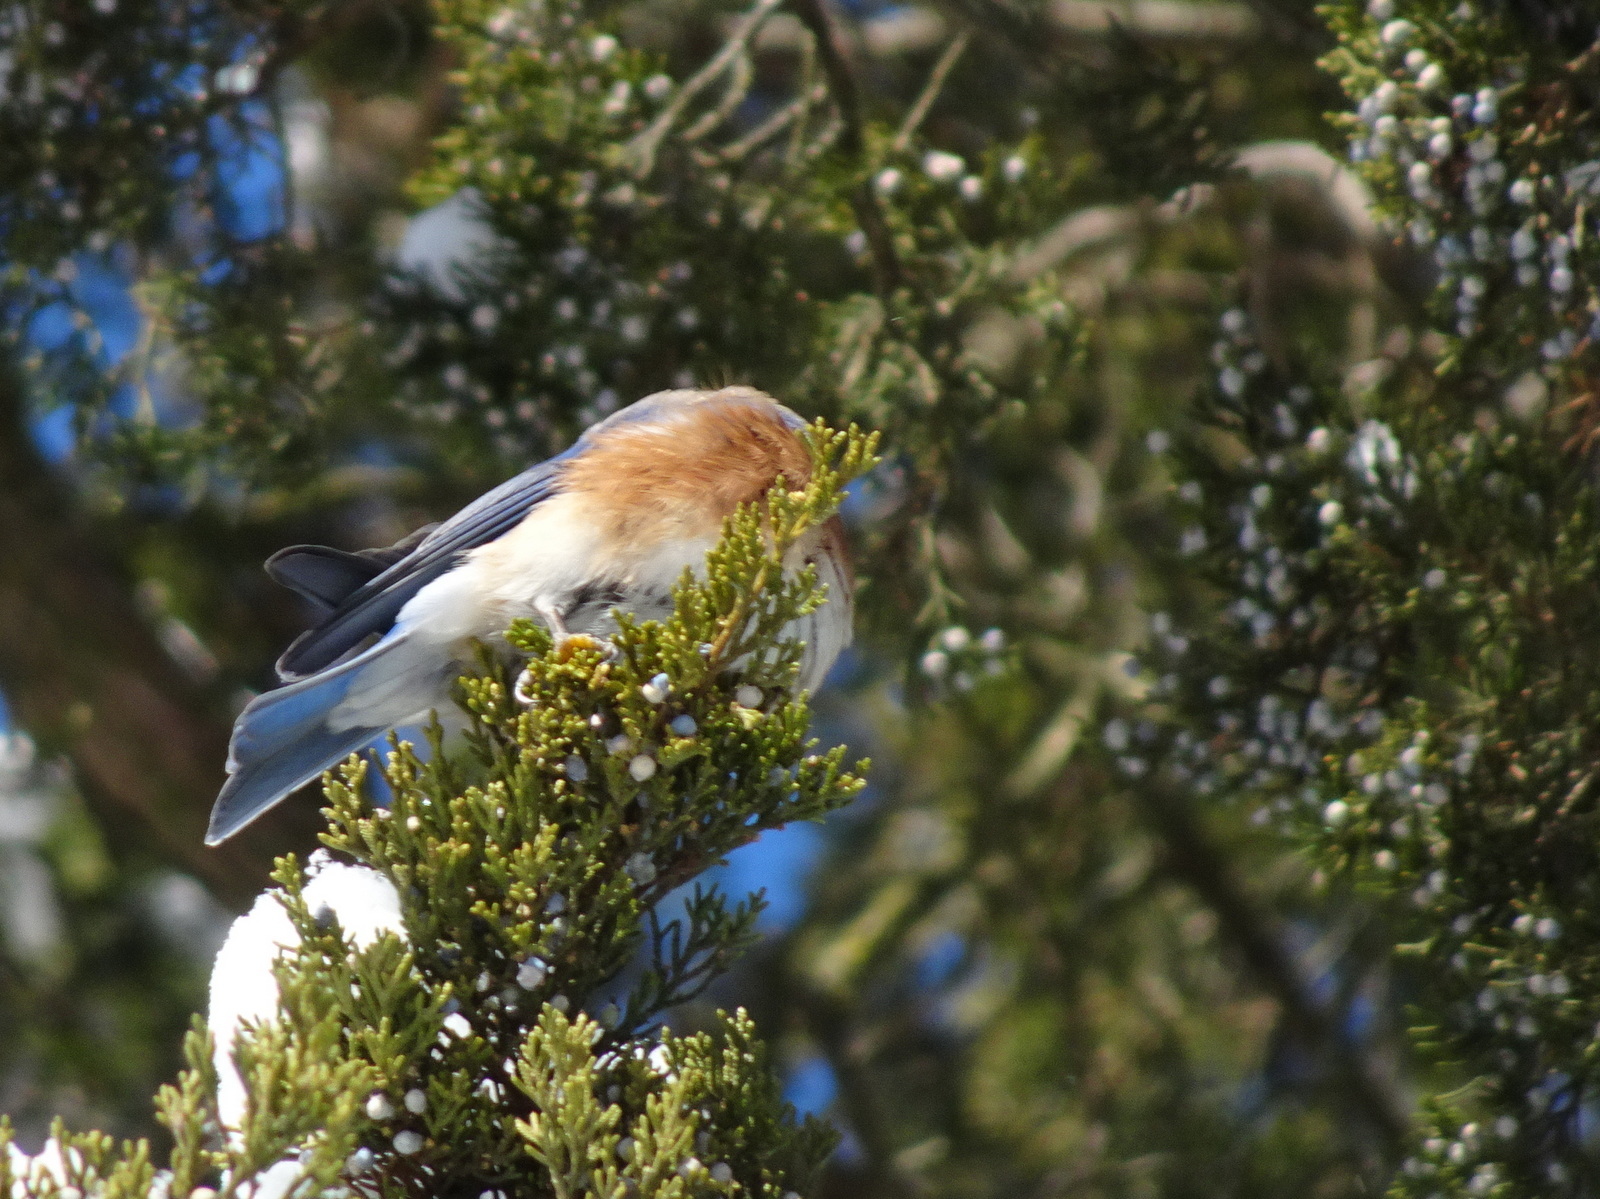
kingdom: Animalia
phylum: Chordata
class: Aves
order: Passeriformes
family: Turdidae
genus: Sialia
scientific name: Sialia sialis
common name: Eastern bluebird
